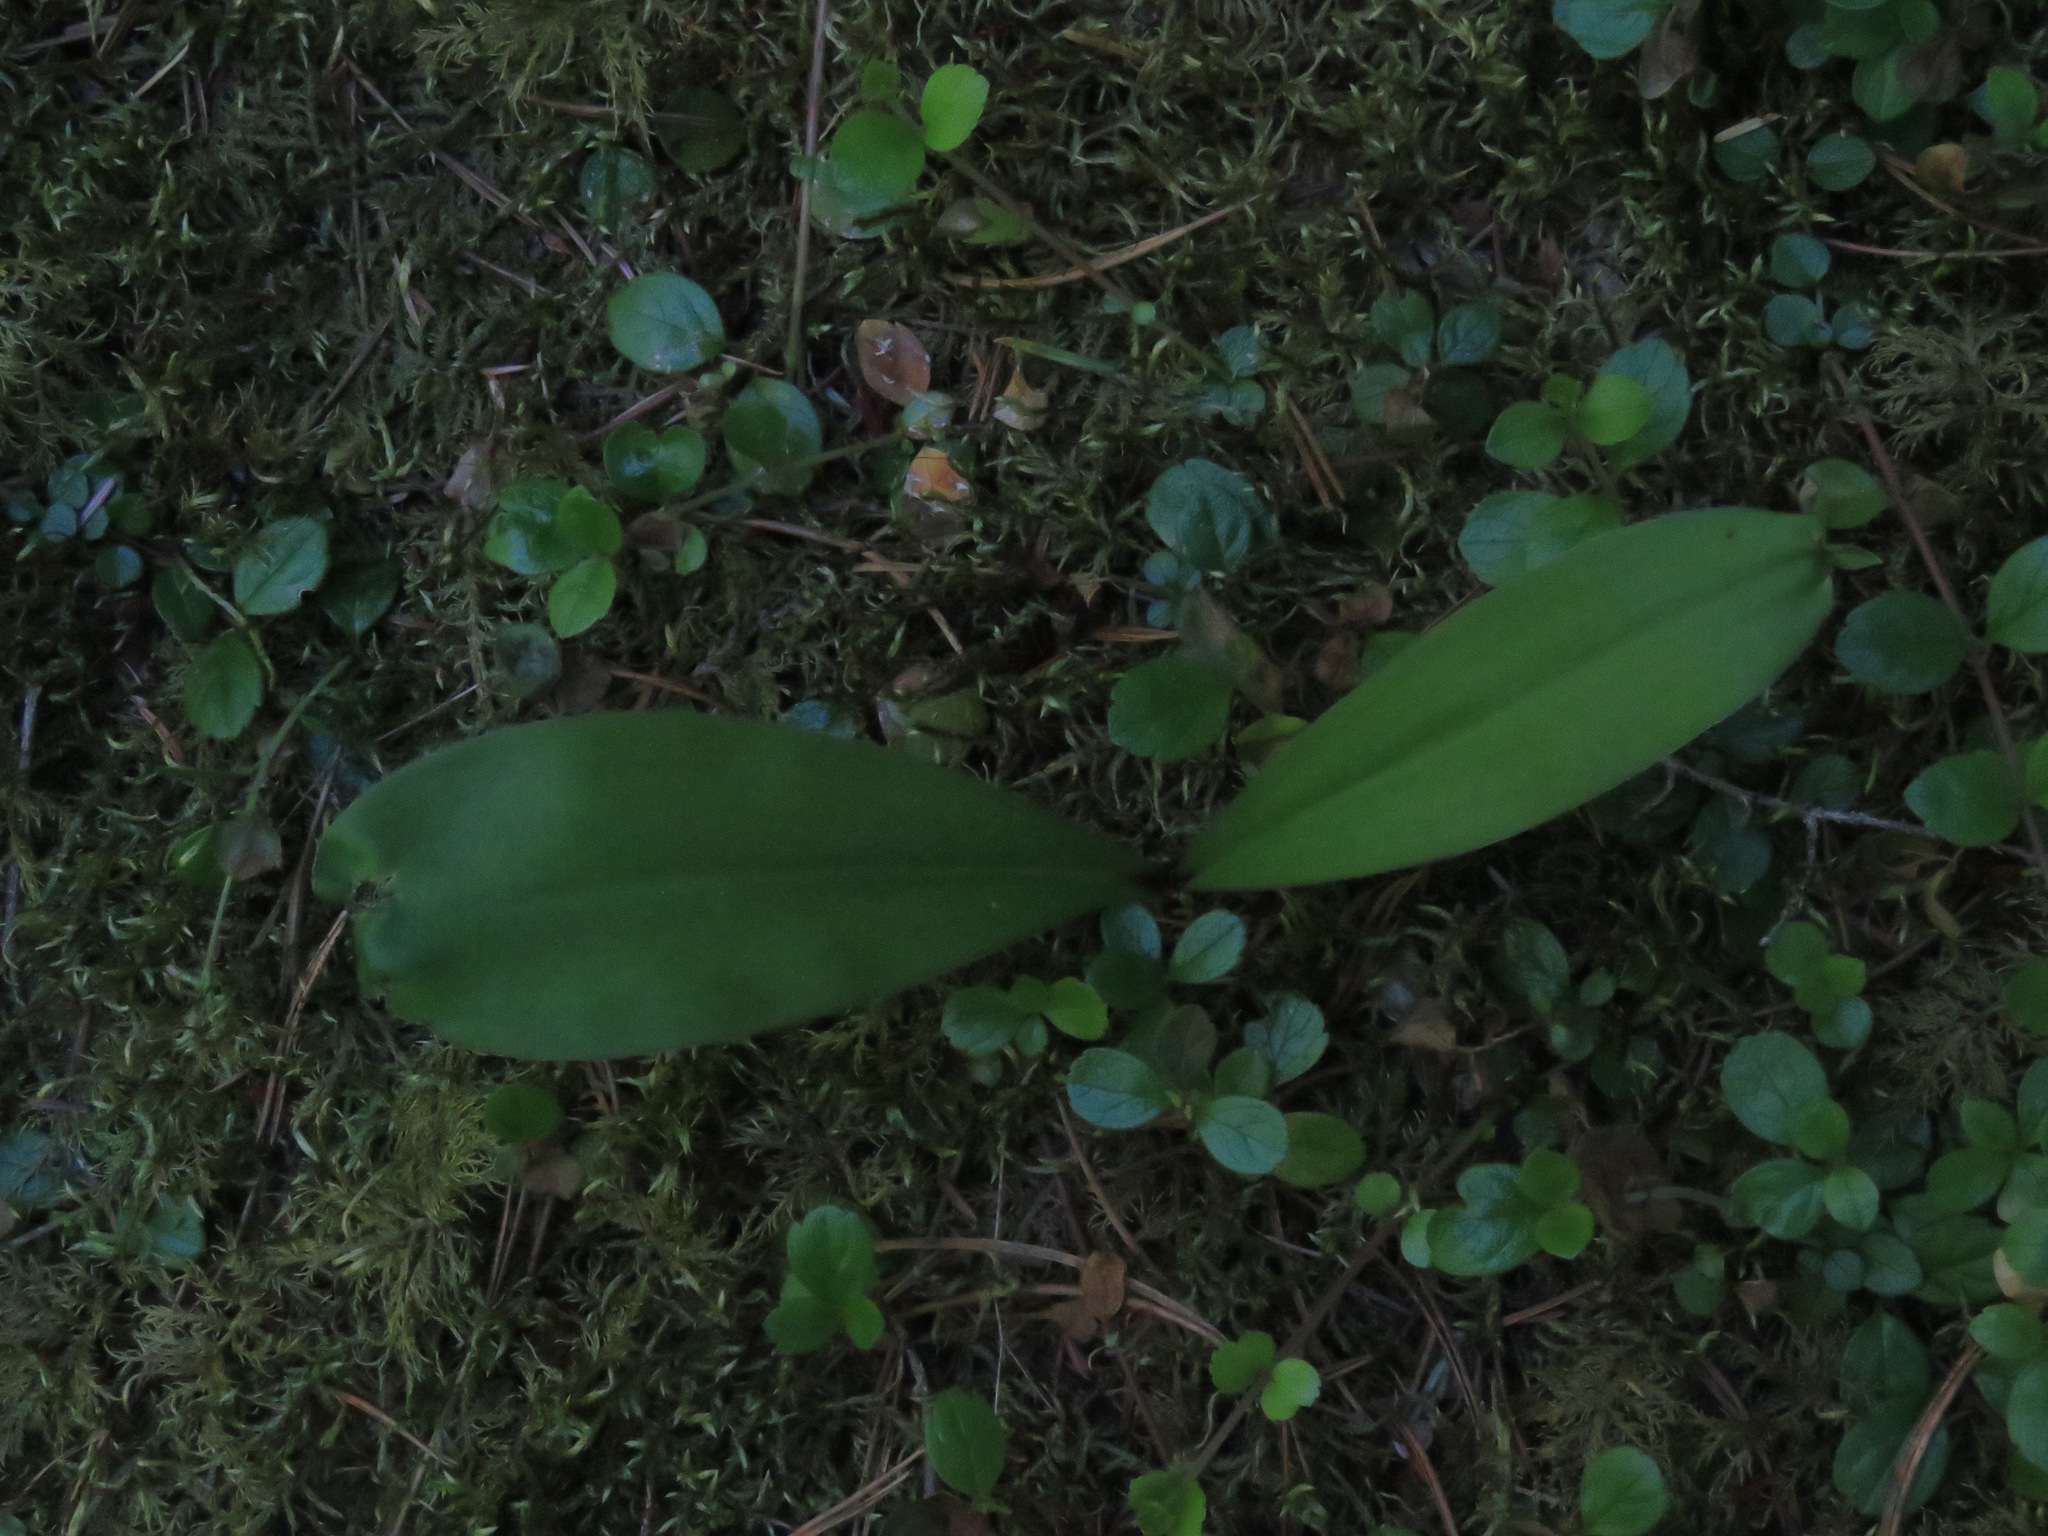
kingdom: Plantae
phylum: Tracheophyta
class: Liliopsida
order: Liliales
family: Liliaceae
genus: Clintonia
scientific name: Clintonia uniflora
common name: Queen's cup
